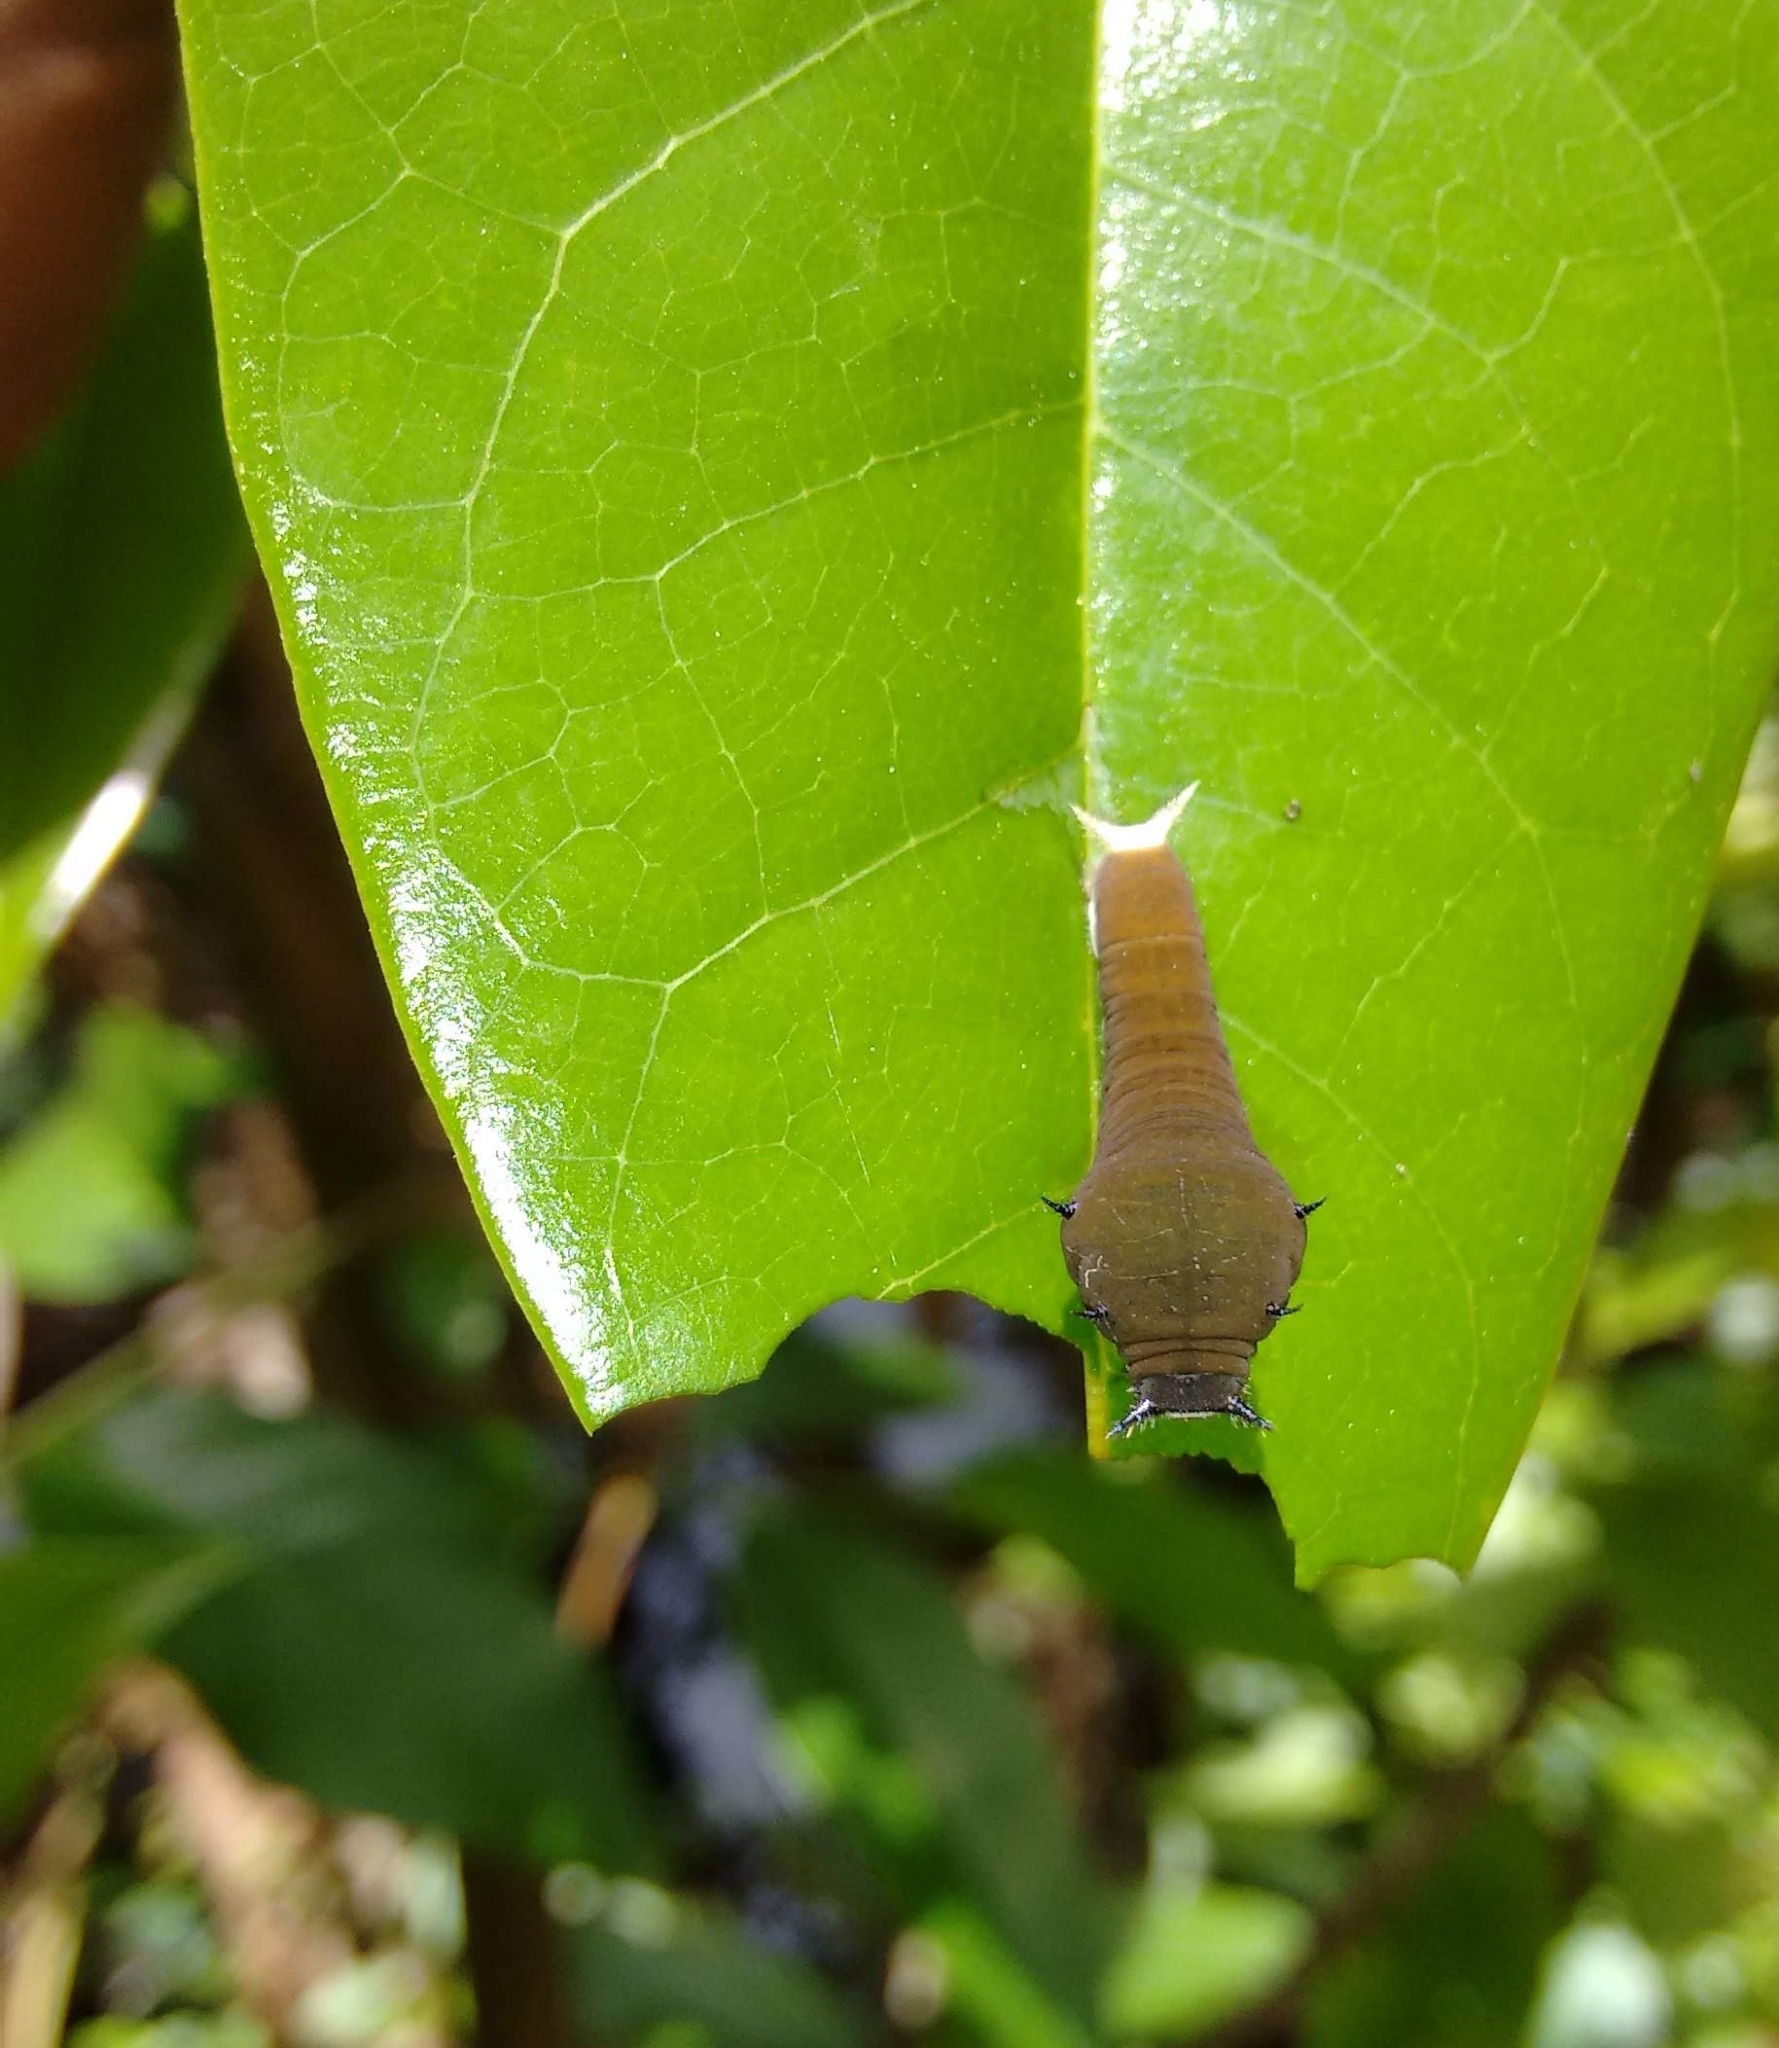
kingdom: Animalia
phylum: Arthropoda
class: Insecta
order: Lepidoptera
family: Papilionidae
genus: Graphium
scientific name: Graphium doson
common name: Common jay
